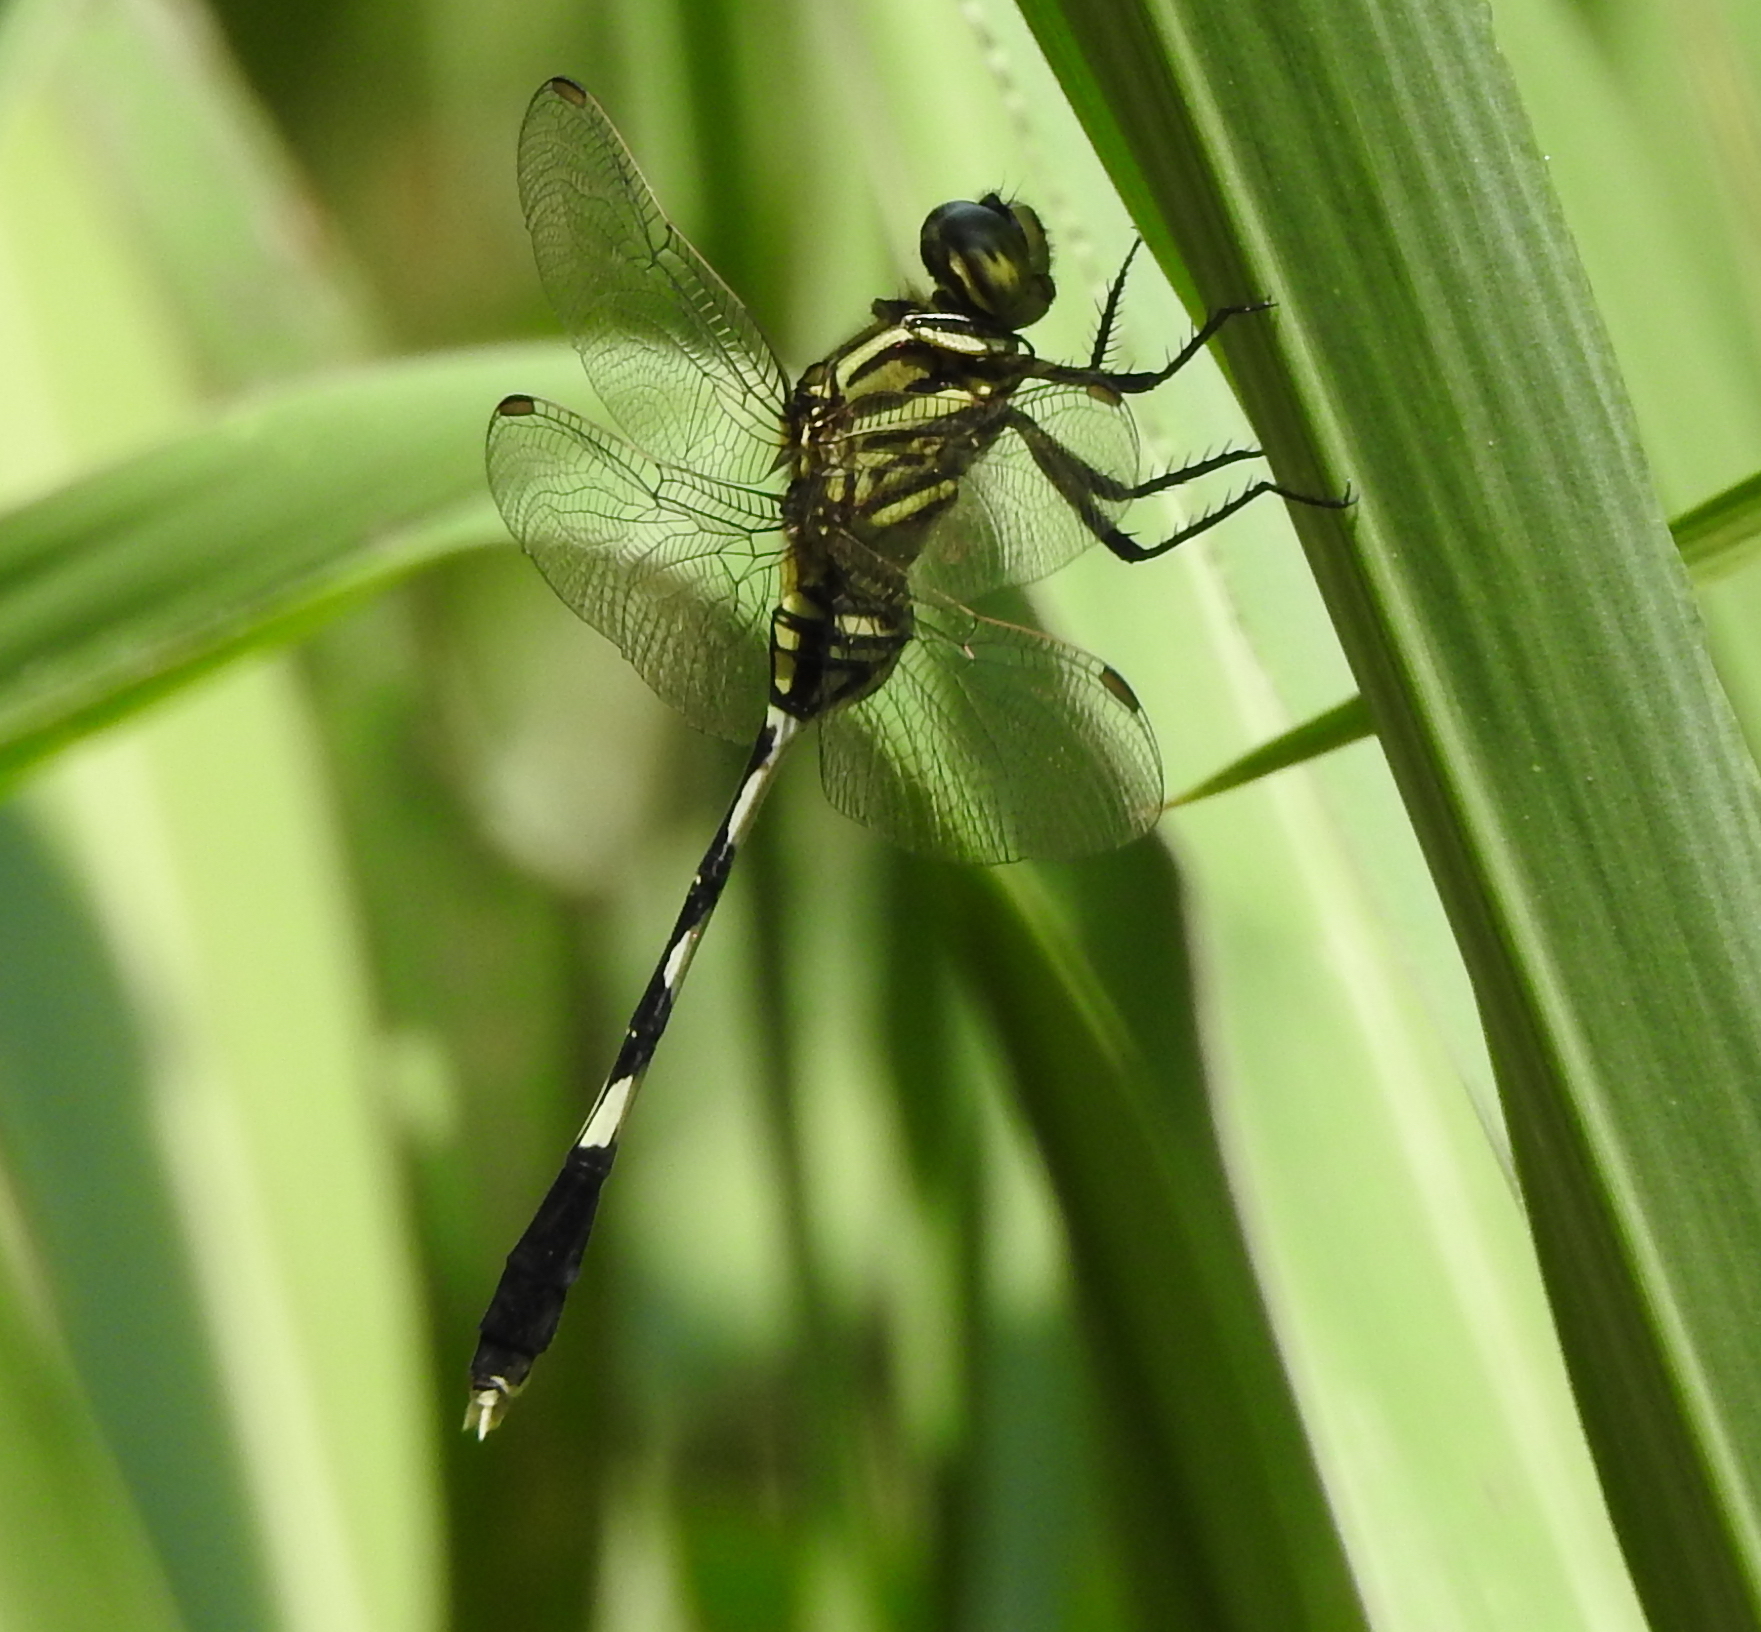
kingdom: Animalia
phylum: Arthropoda
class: Insecta
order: Odonata
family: Libellulidae
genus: Orthetrum
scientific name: Orthetrum sabina
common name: Slender skimmer
